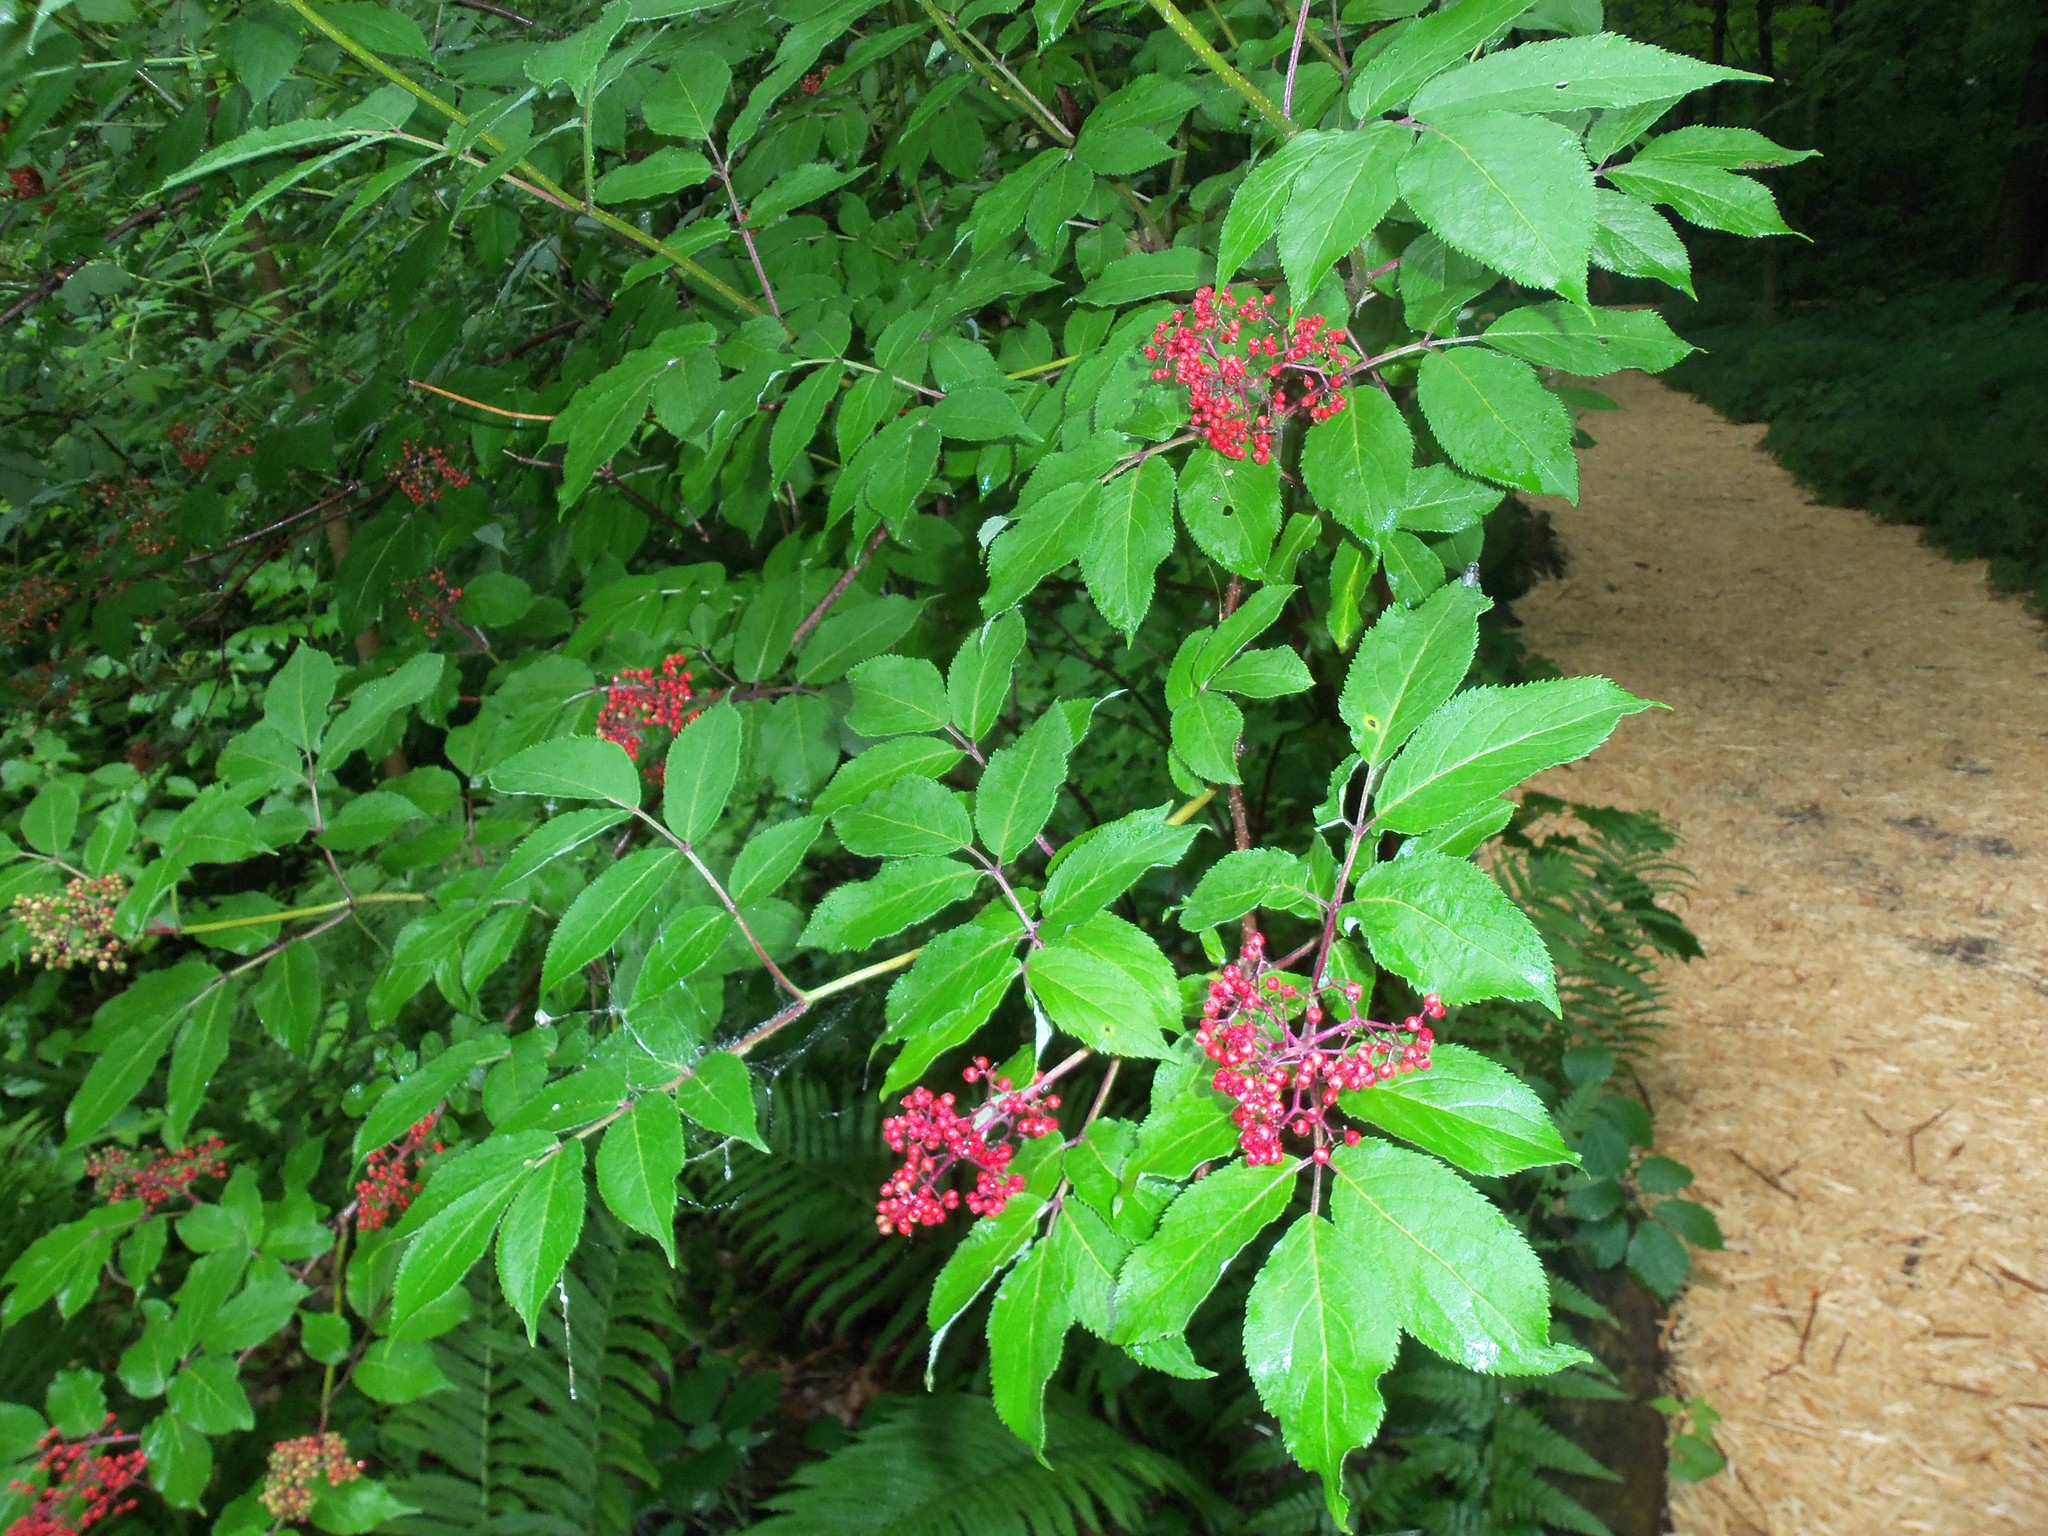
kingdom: Plantae
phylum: Tracheophyta
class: Magnoliopsida
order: Dipsacales
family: Viburnaceae
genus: Sambucus
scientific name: Sambucus racemosa
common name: Red-berried elder
